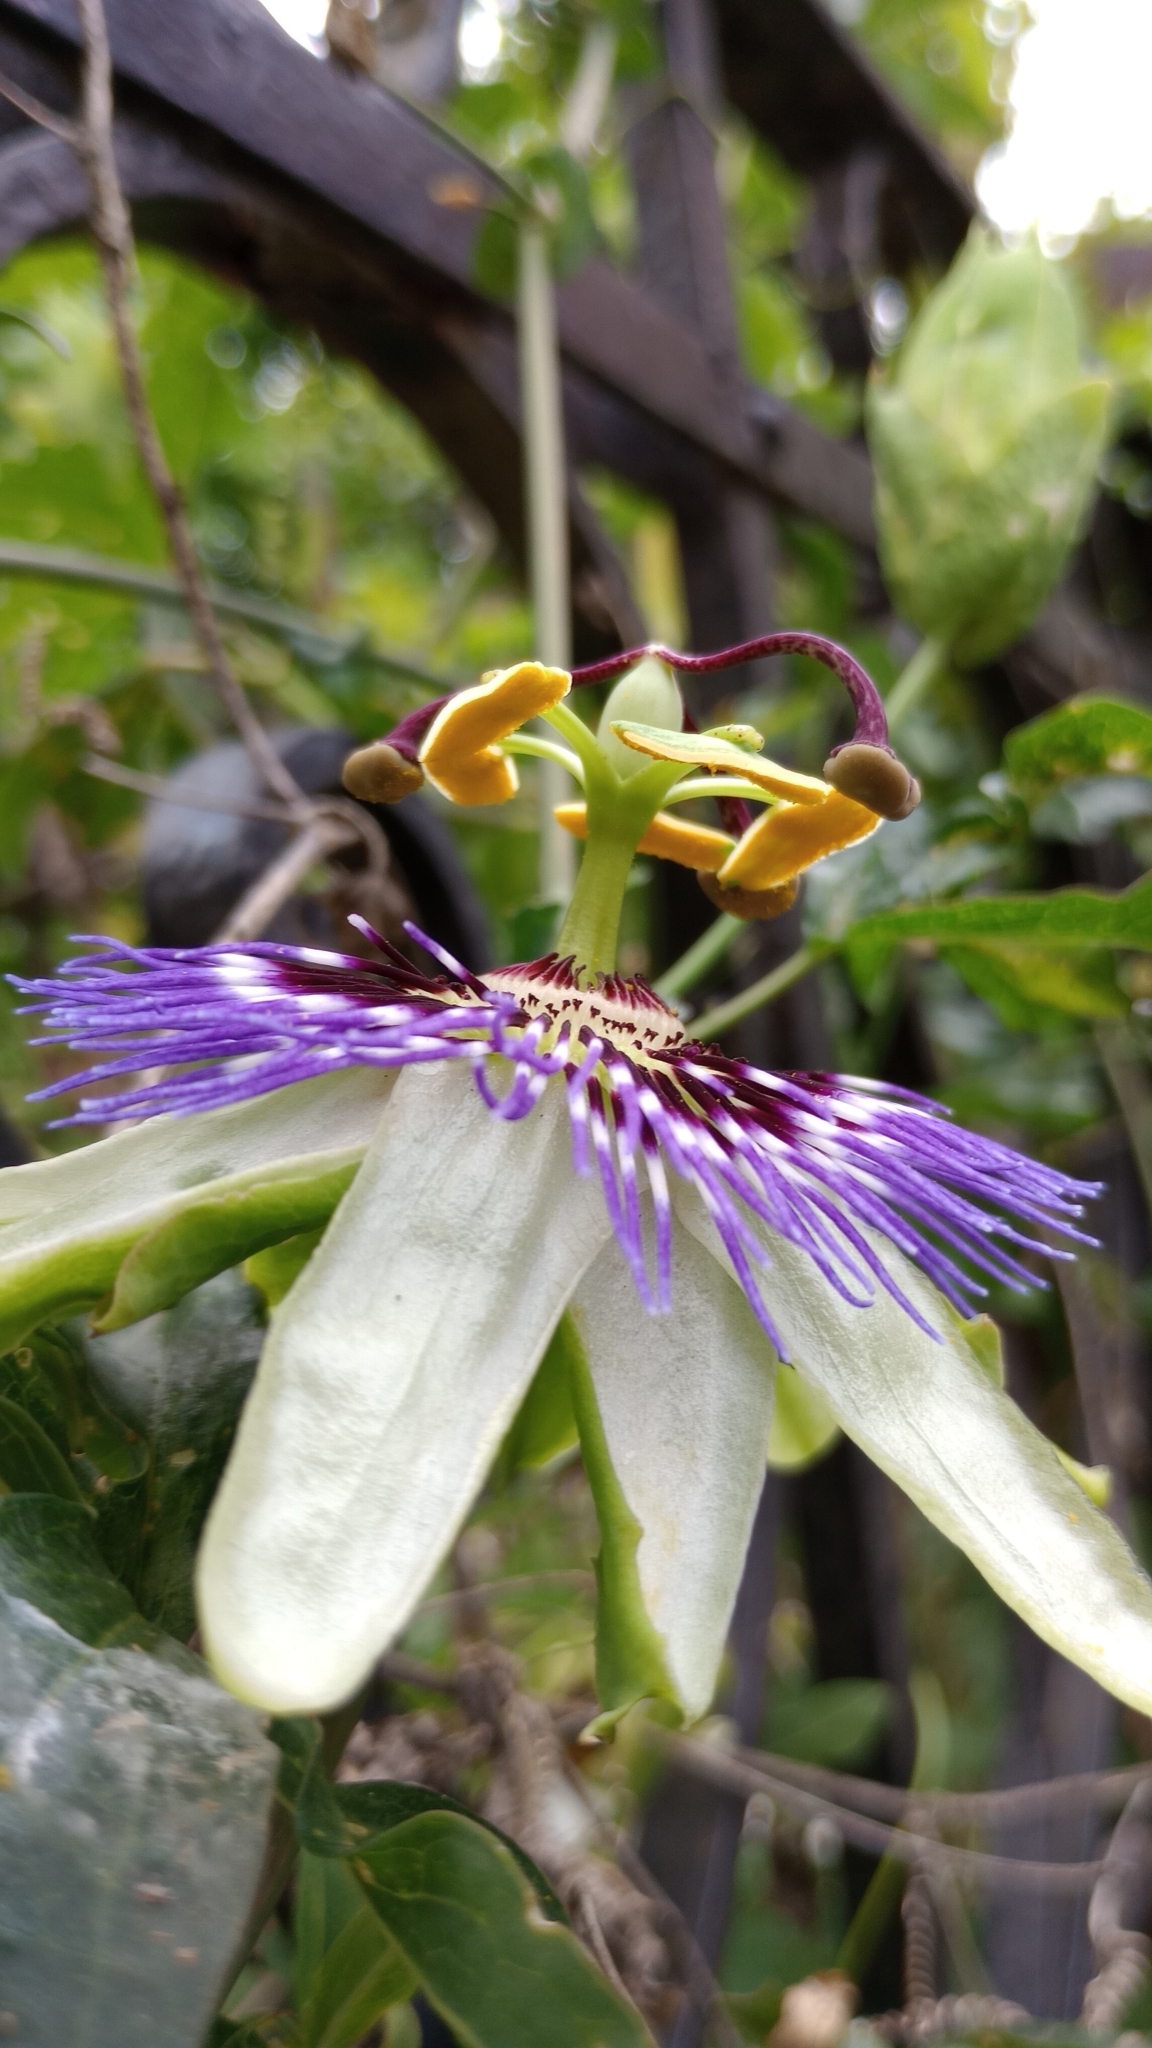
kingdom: Plantae
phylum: Tracheophyta
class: Magnoliopsida
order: Malpighiales
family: Passifloraceae
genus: Passiflora
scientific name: Passiflora caerulea
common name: Blue passionflower
